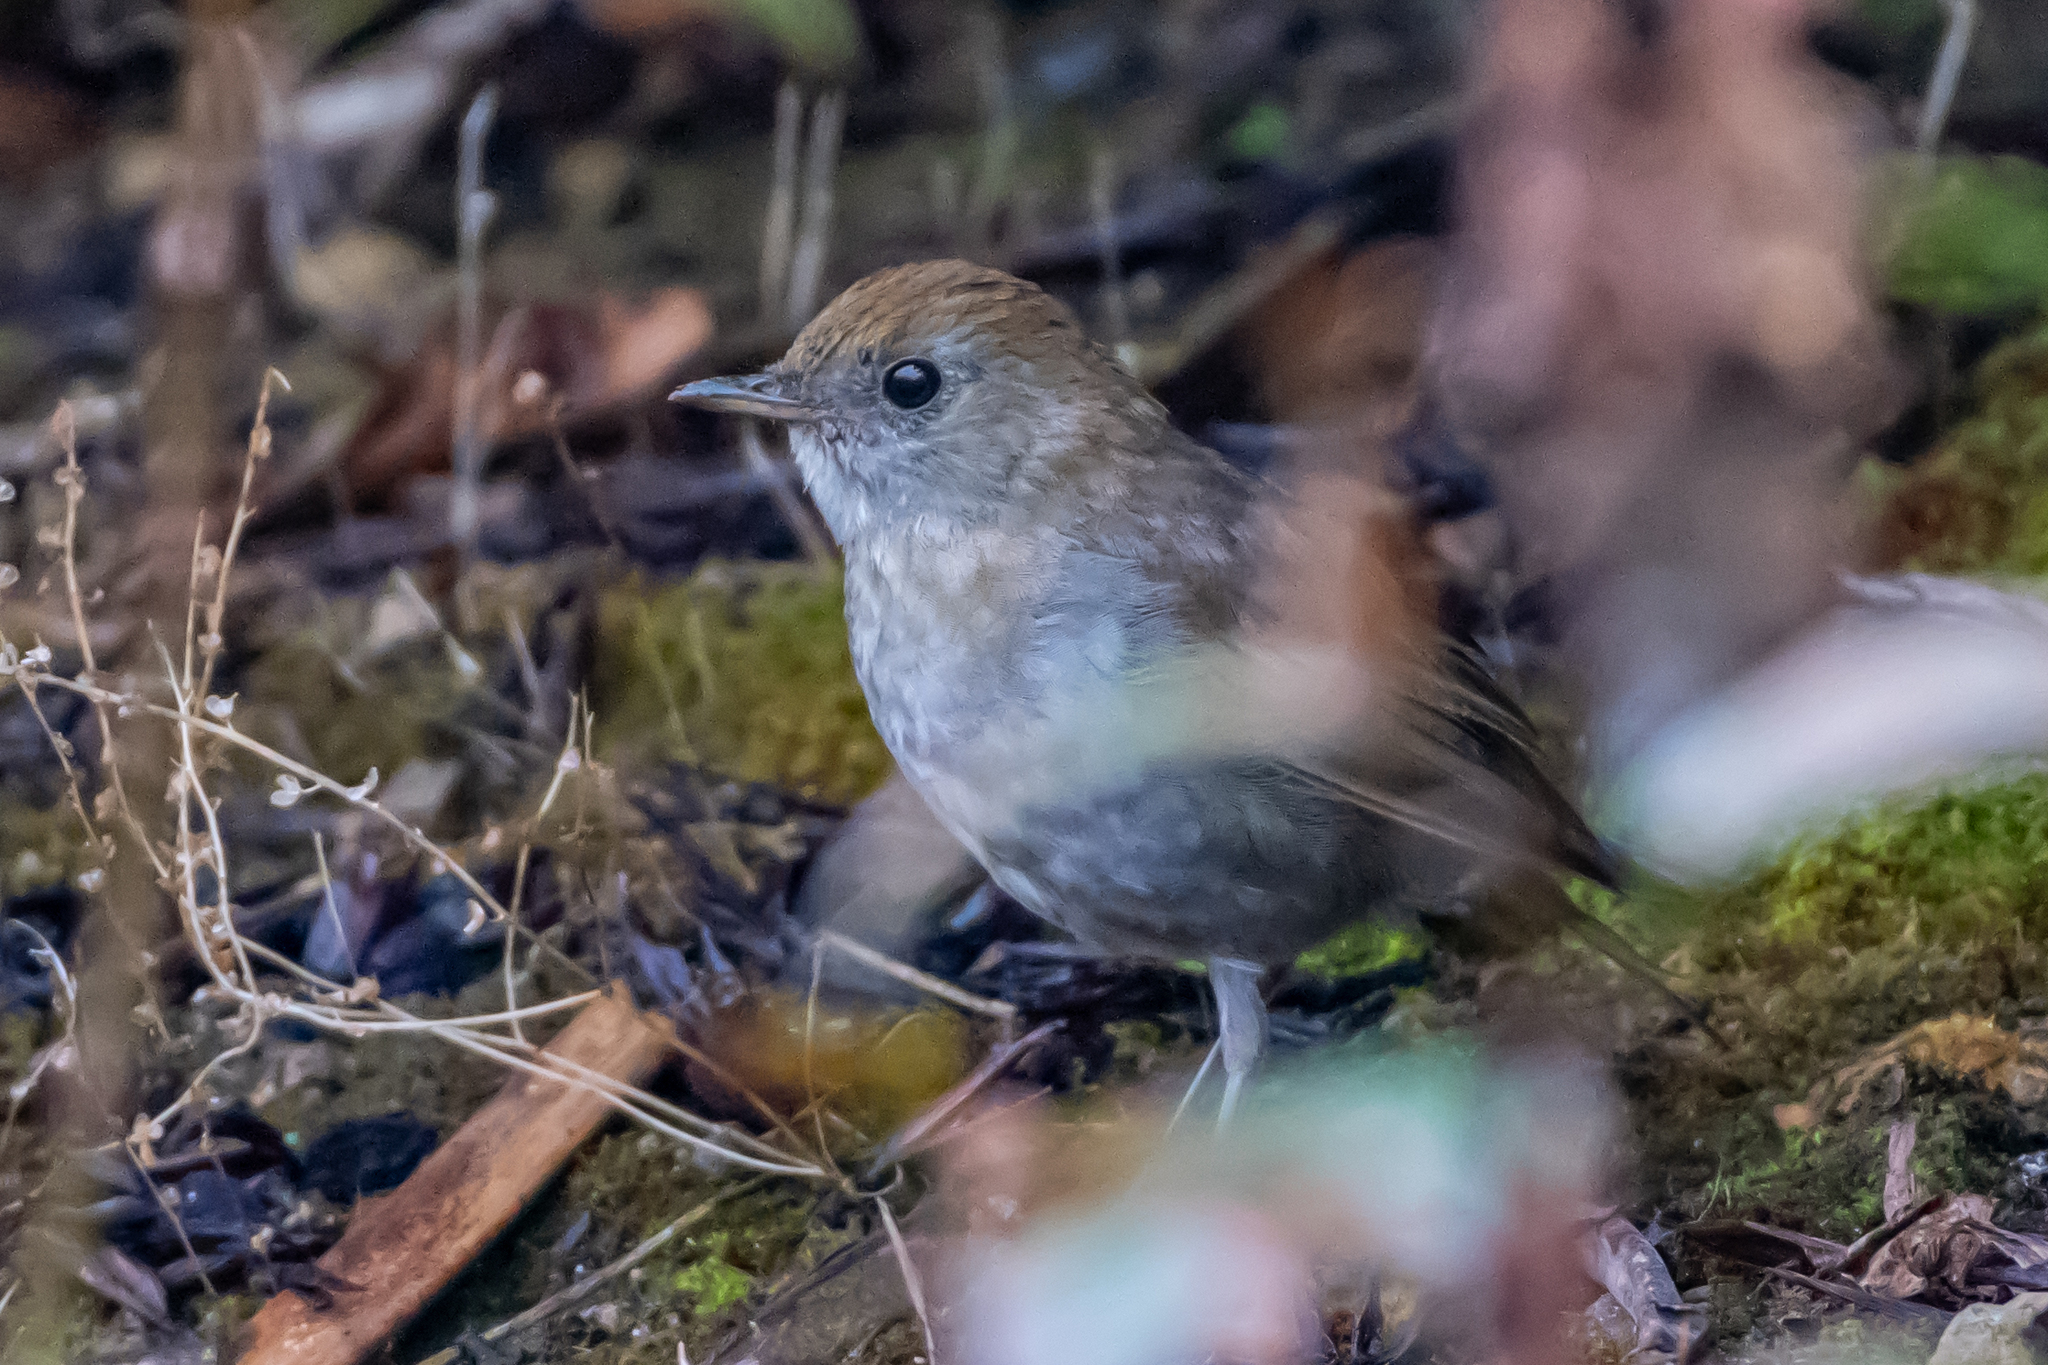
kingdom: Animalia
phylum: Chordata
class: Aves
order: Passeriformes
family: Turdidae
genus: Catharus
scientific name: Catharus frantzii
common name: Ruddy-capped nightingale-thrush
